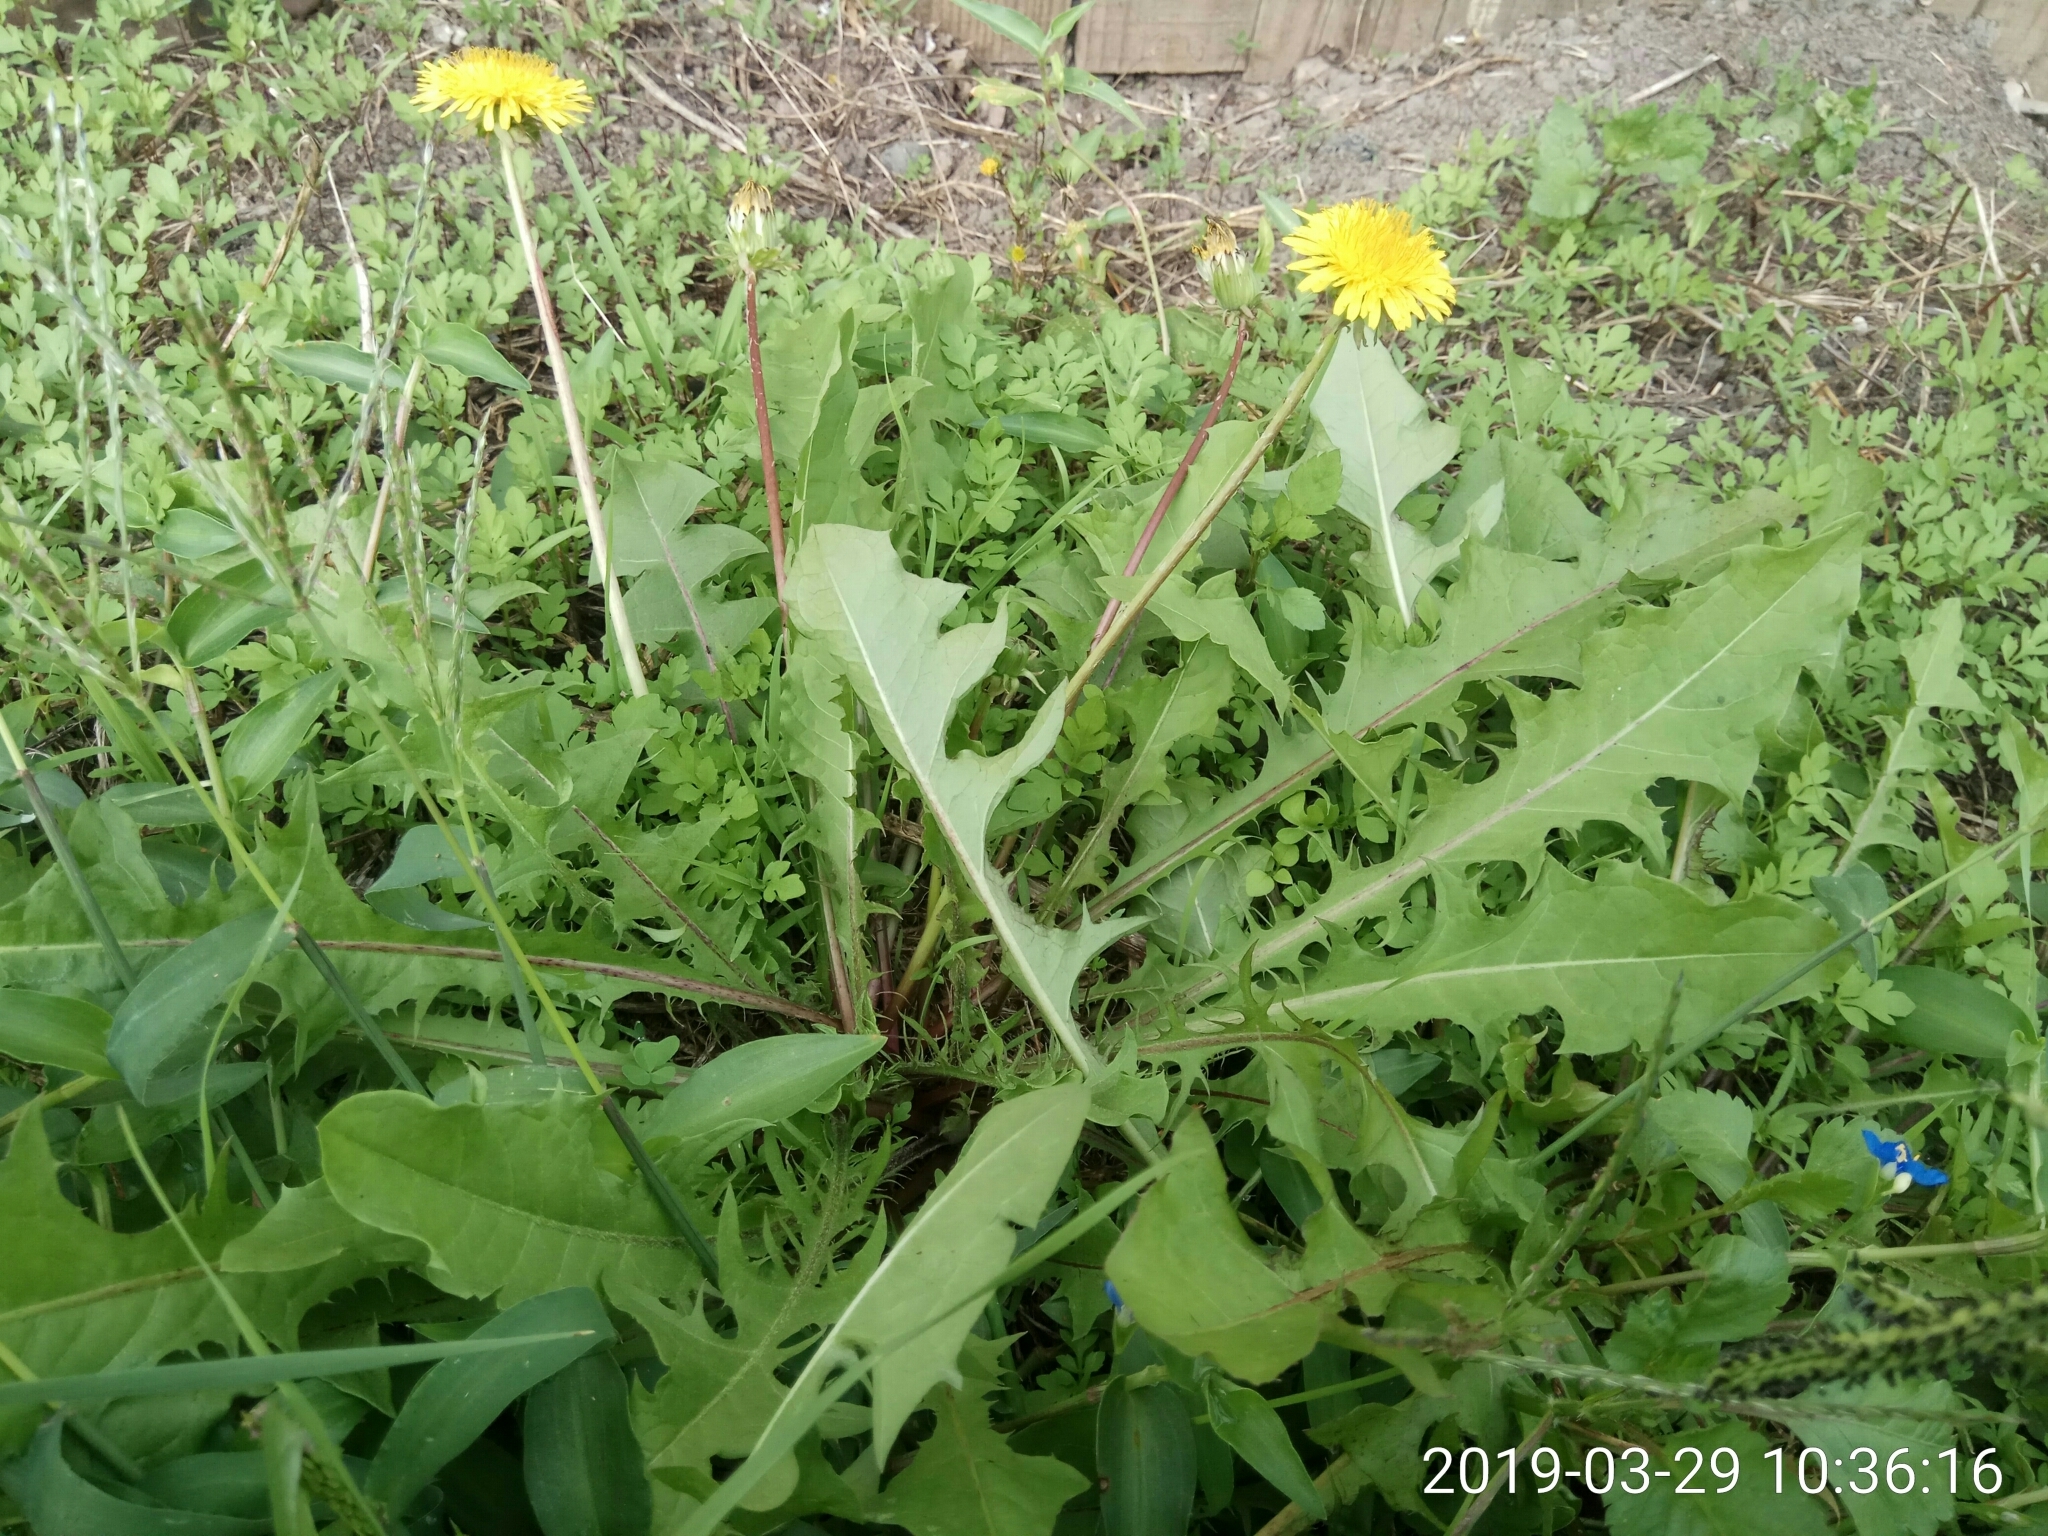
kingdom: Plantae
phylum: Tracheophyta
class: Magnoliopsida
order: Asterales
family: Asteraceae
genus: Taraxacum
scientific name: Taraxacum officinale
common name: Common dandelion
